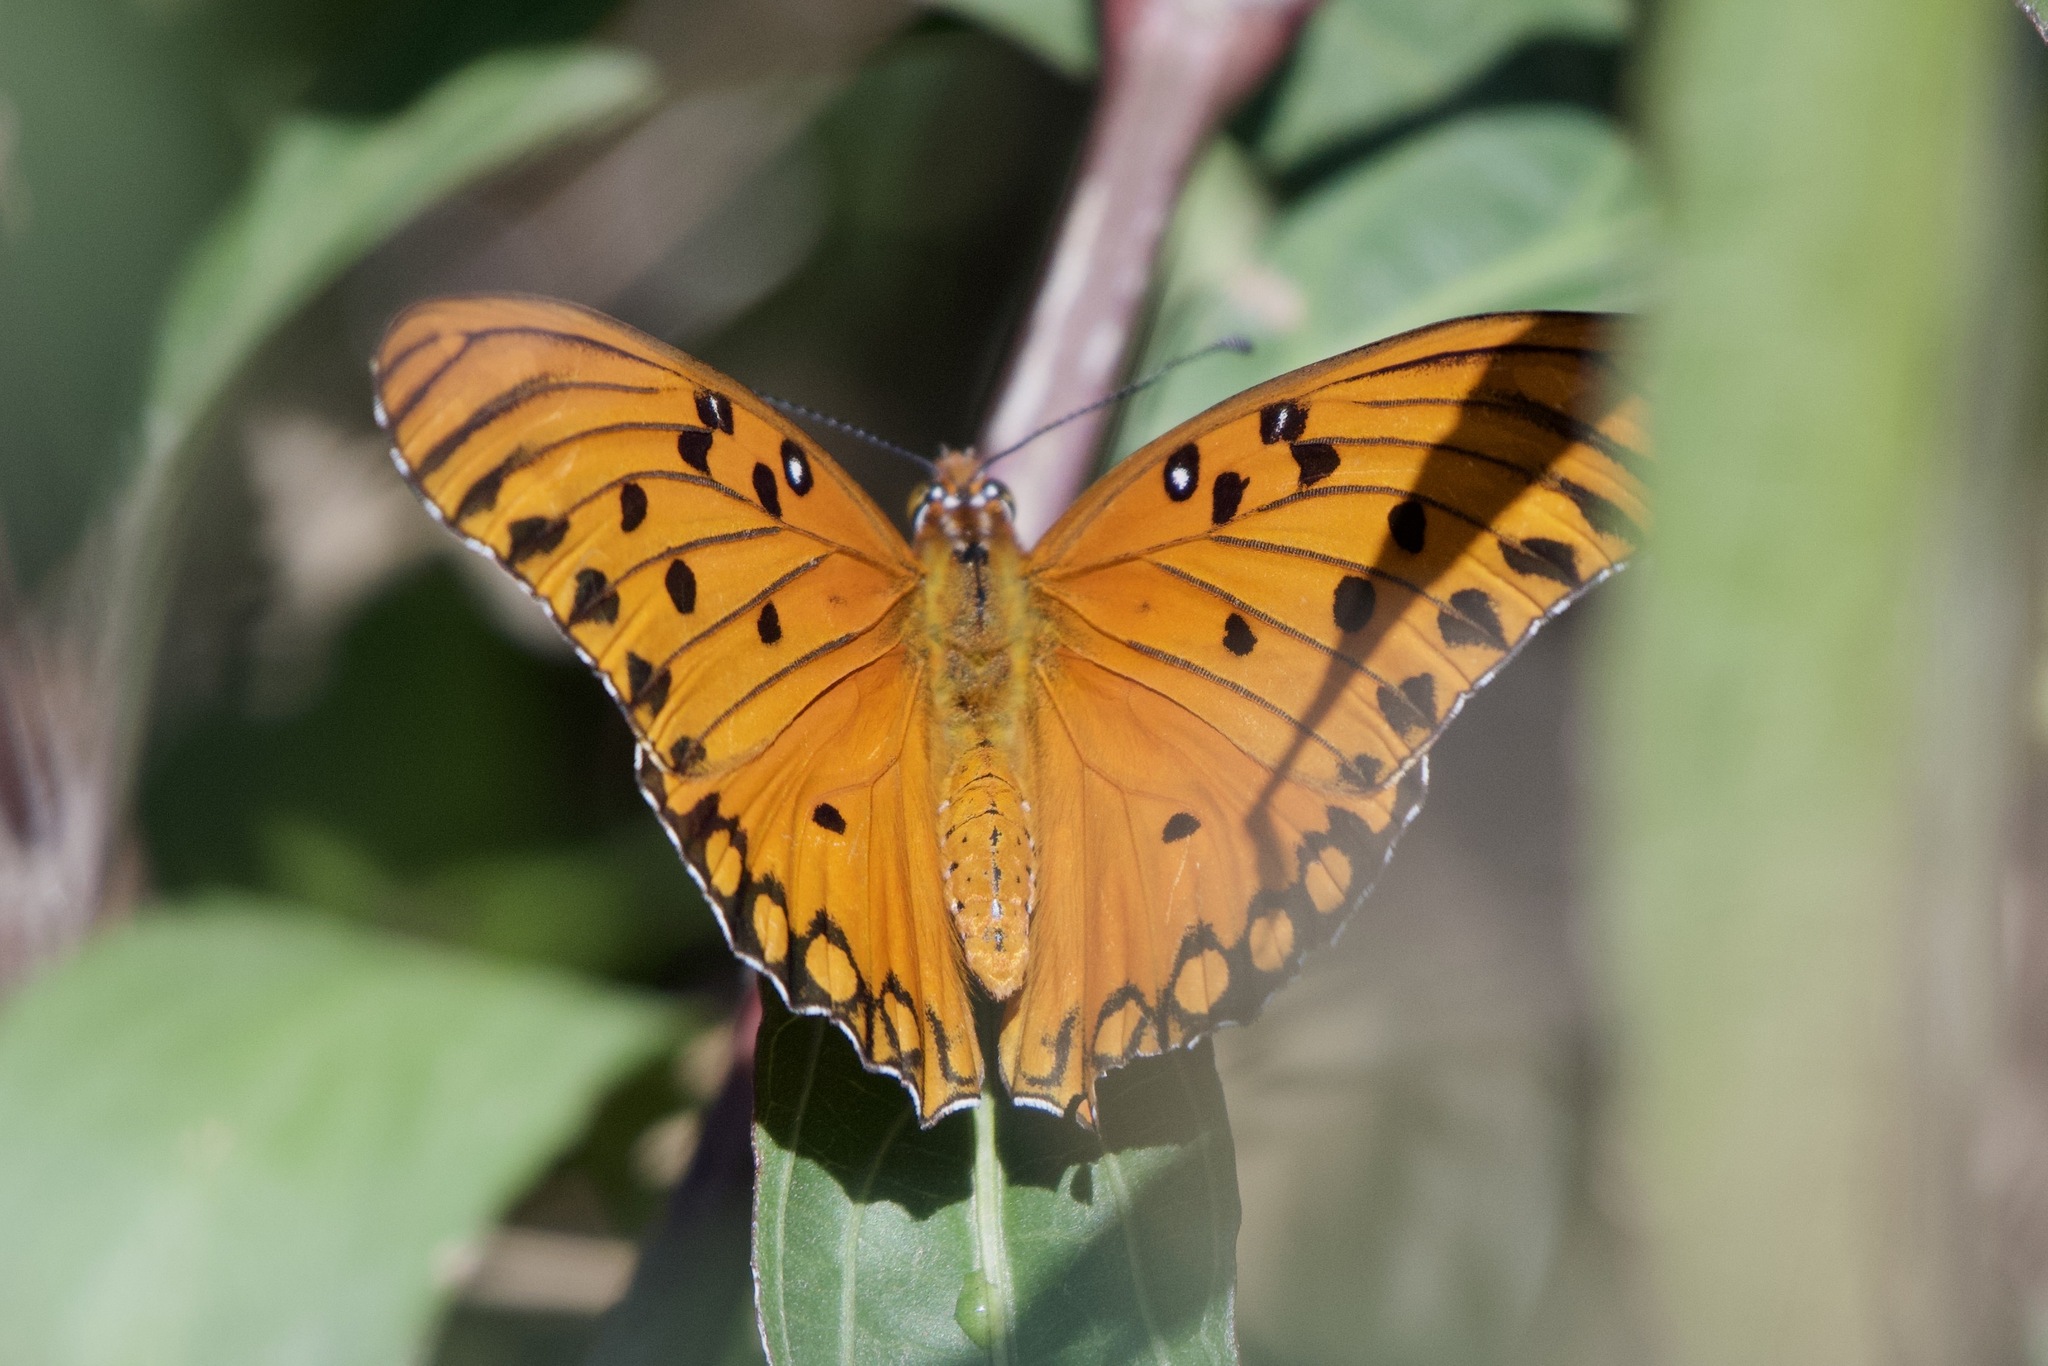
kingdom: Animalia
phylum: Arthropoda
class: Insecta
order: Lepidoptera
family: Nymphalidae
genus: Dione
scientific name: Dione vanillae
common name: Gulf fritillary
